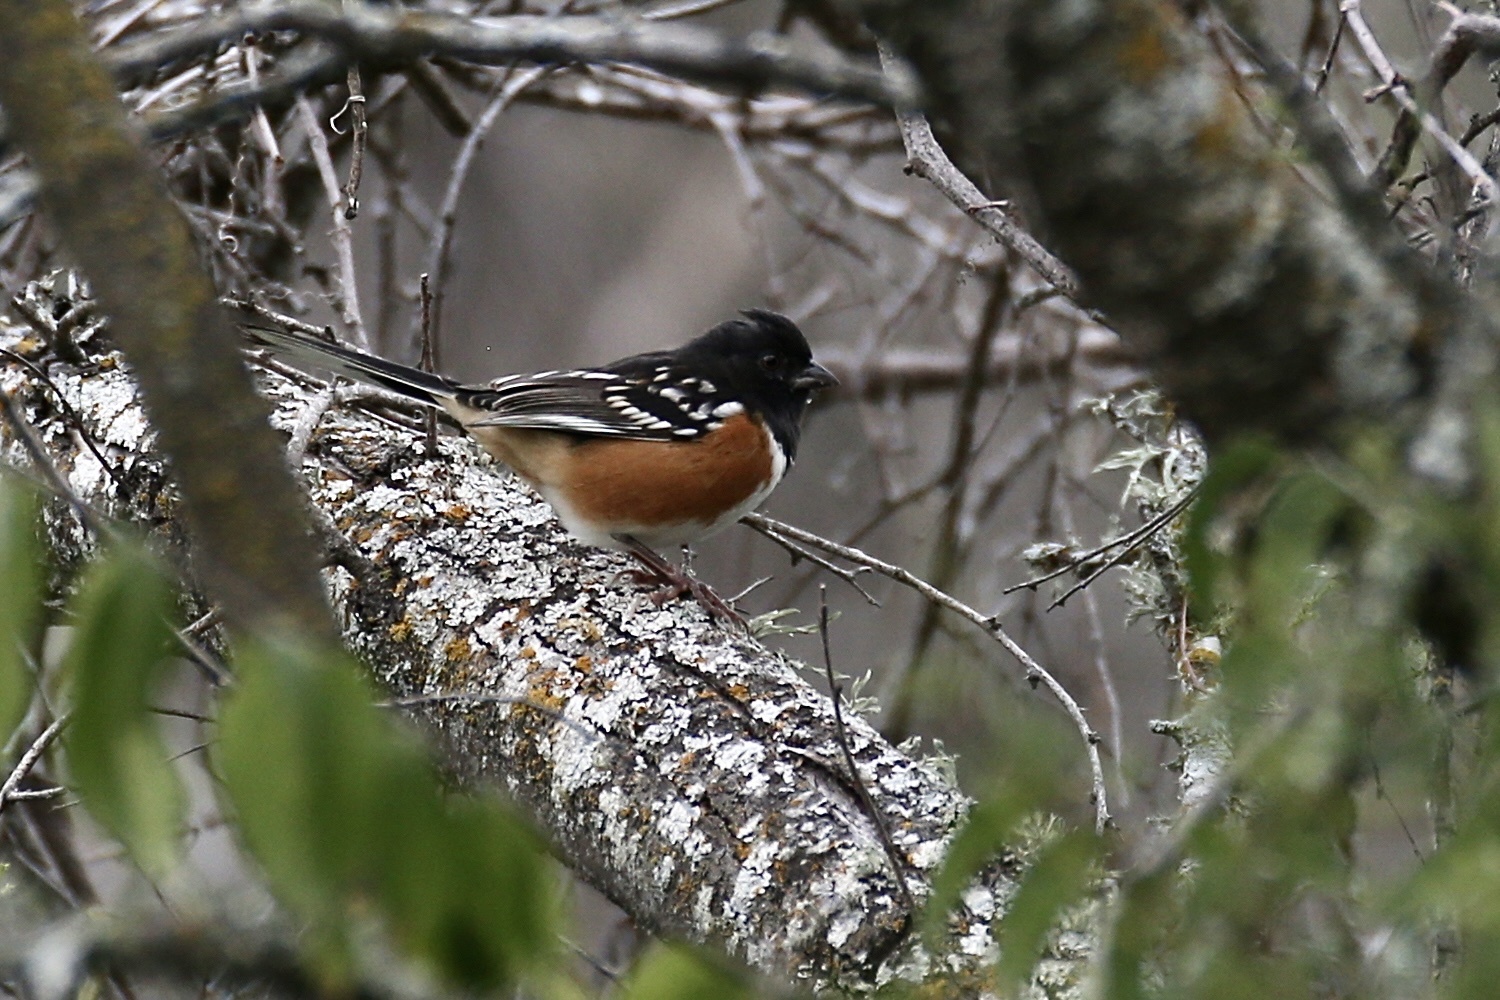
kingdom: Animalia
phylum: Chordata
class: Aves
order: Passeriformes
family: Passerellidae
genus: Pipilo
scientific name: Pipilo maculatus
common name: Spotted towhee
